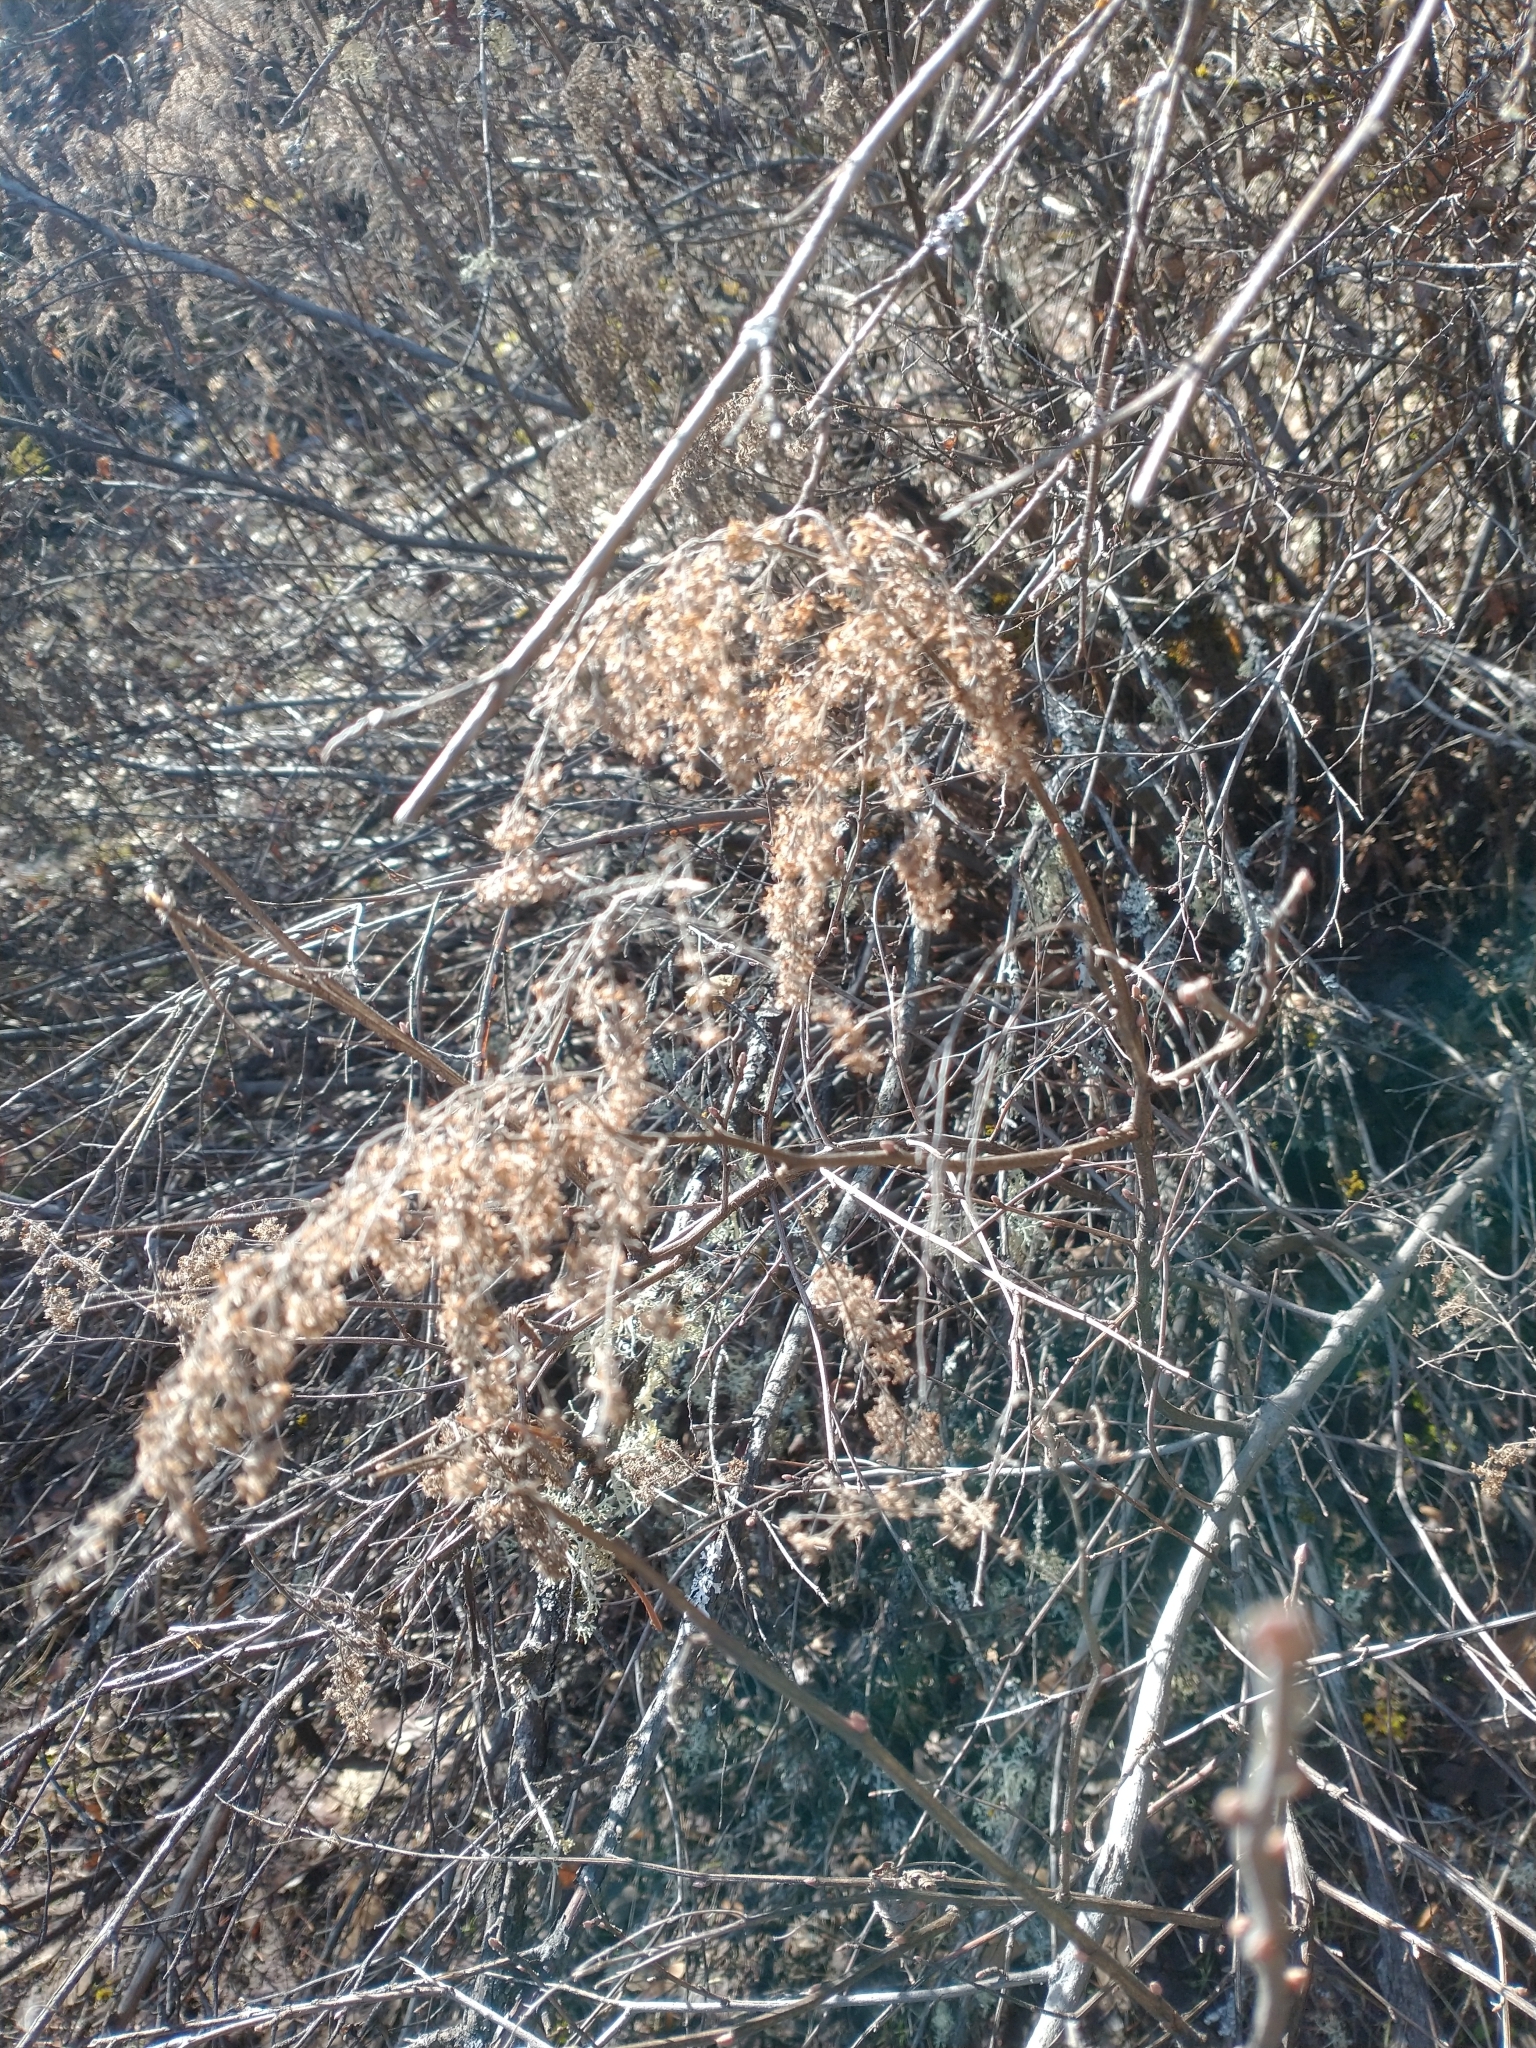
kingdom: Plantae
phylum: Tracheophyta
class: Magnoliopsida
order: Rosales
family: Rosaceae
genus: Holodiscus
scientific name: Holodiscus discolor
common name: Oceanspray
